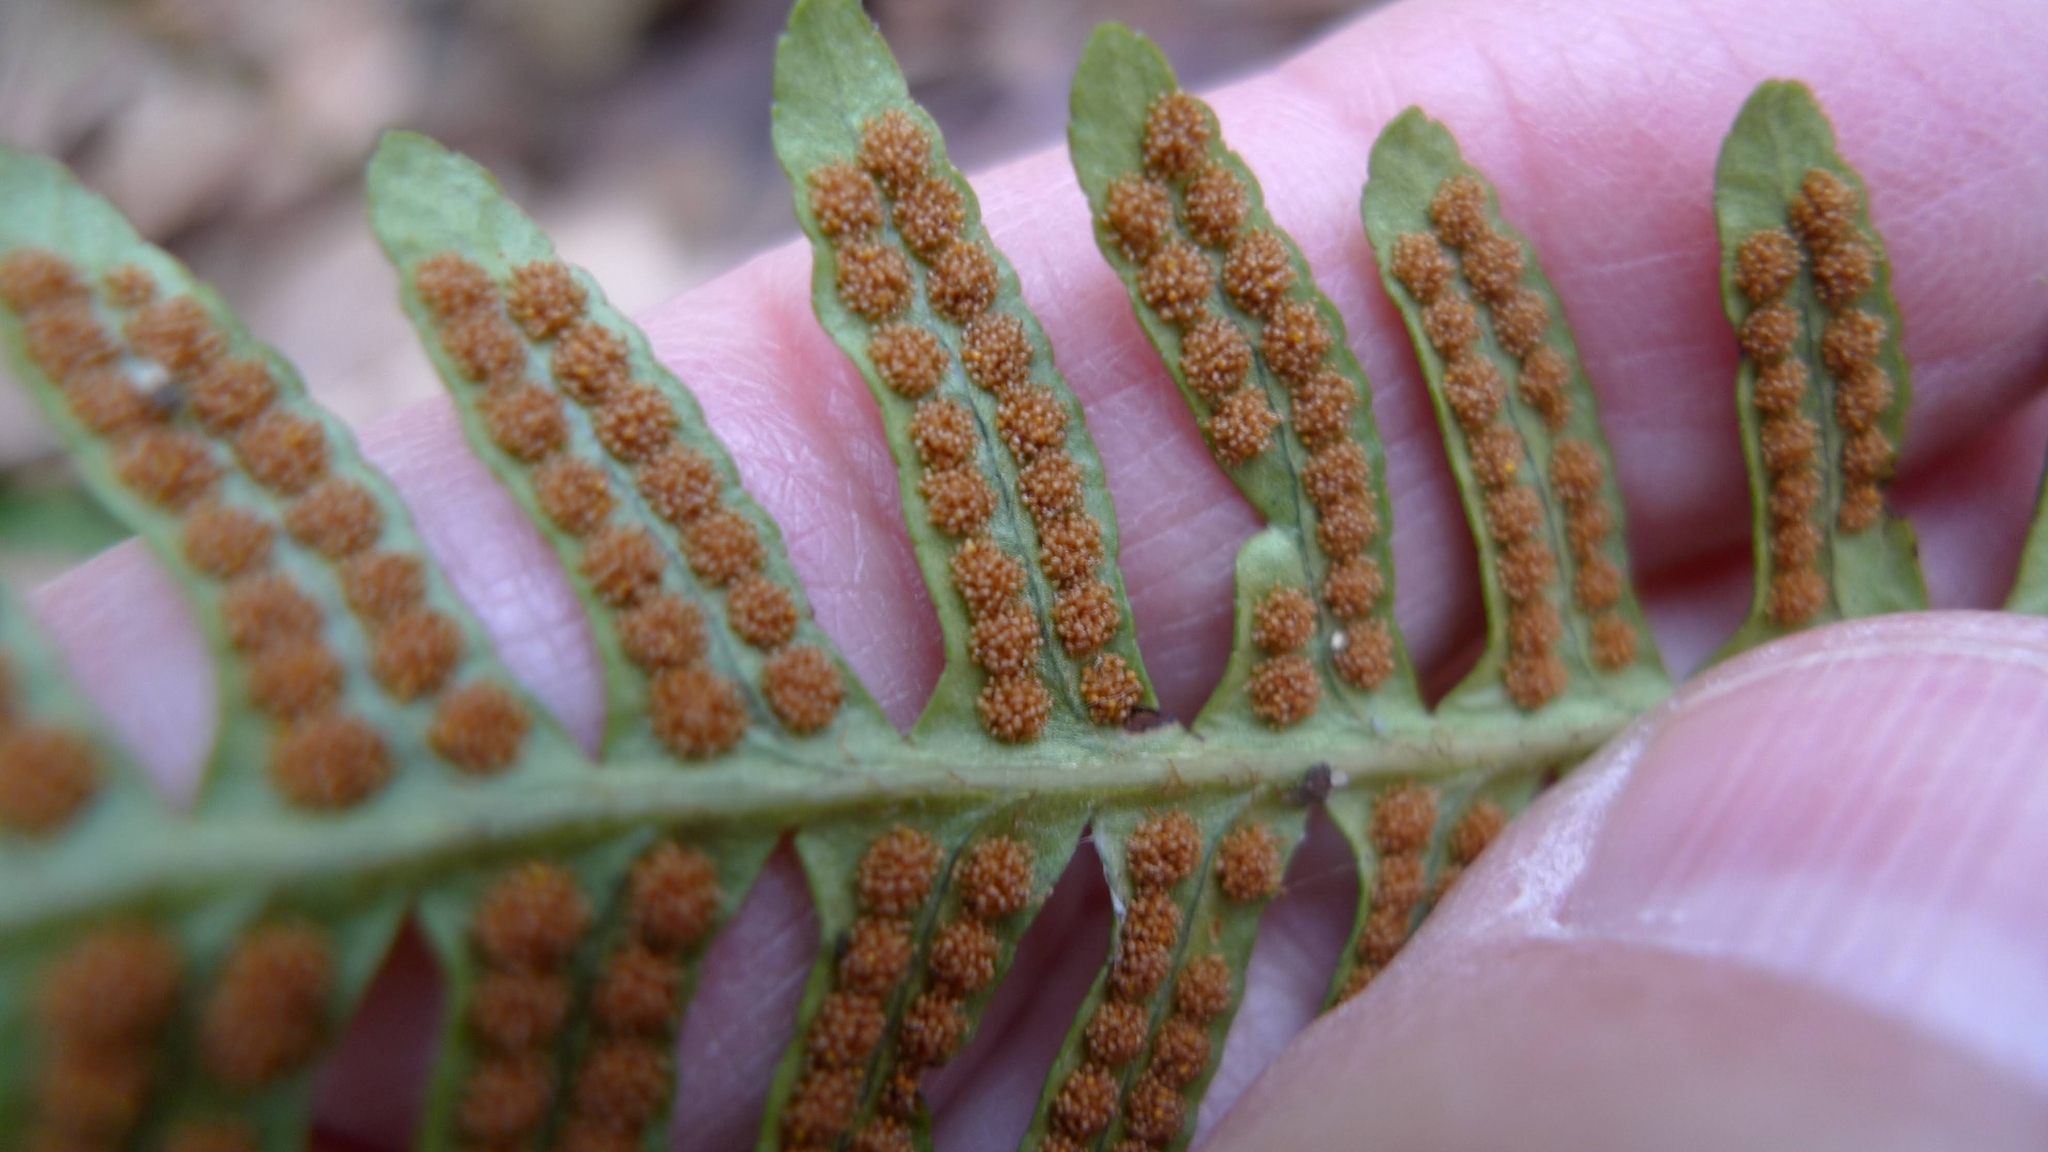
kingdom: Plantae
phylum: Tracheophyta
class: Polypodiopsida
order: Polypodiales
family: Polypodiaceae
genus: Polypodium
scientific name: Polypodium vulgare
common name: Common polypody
